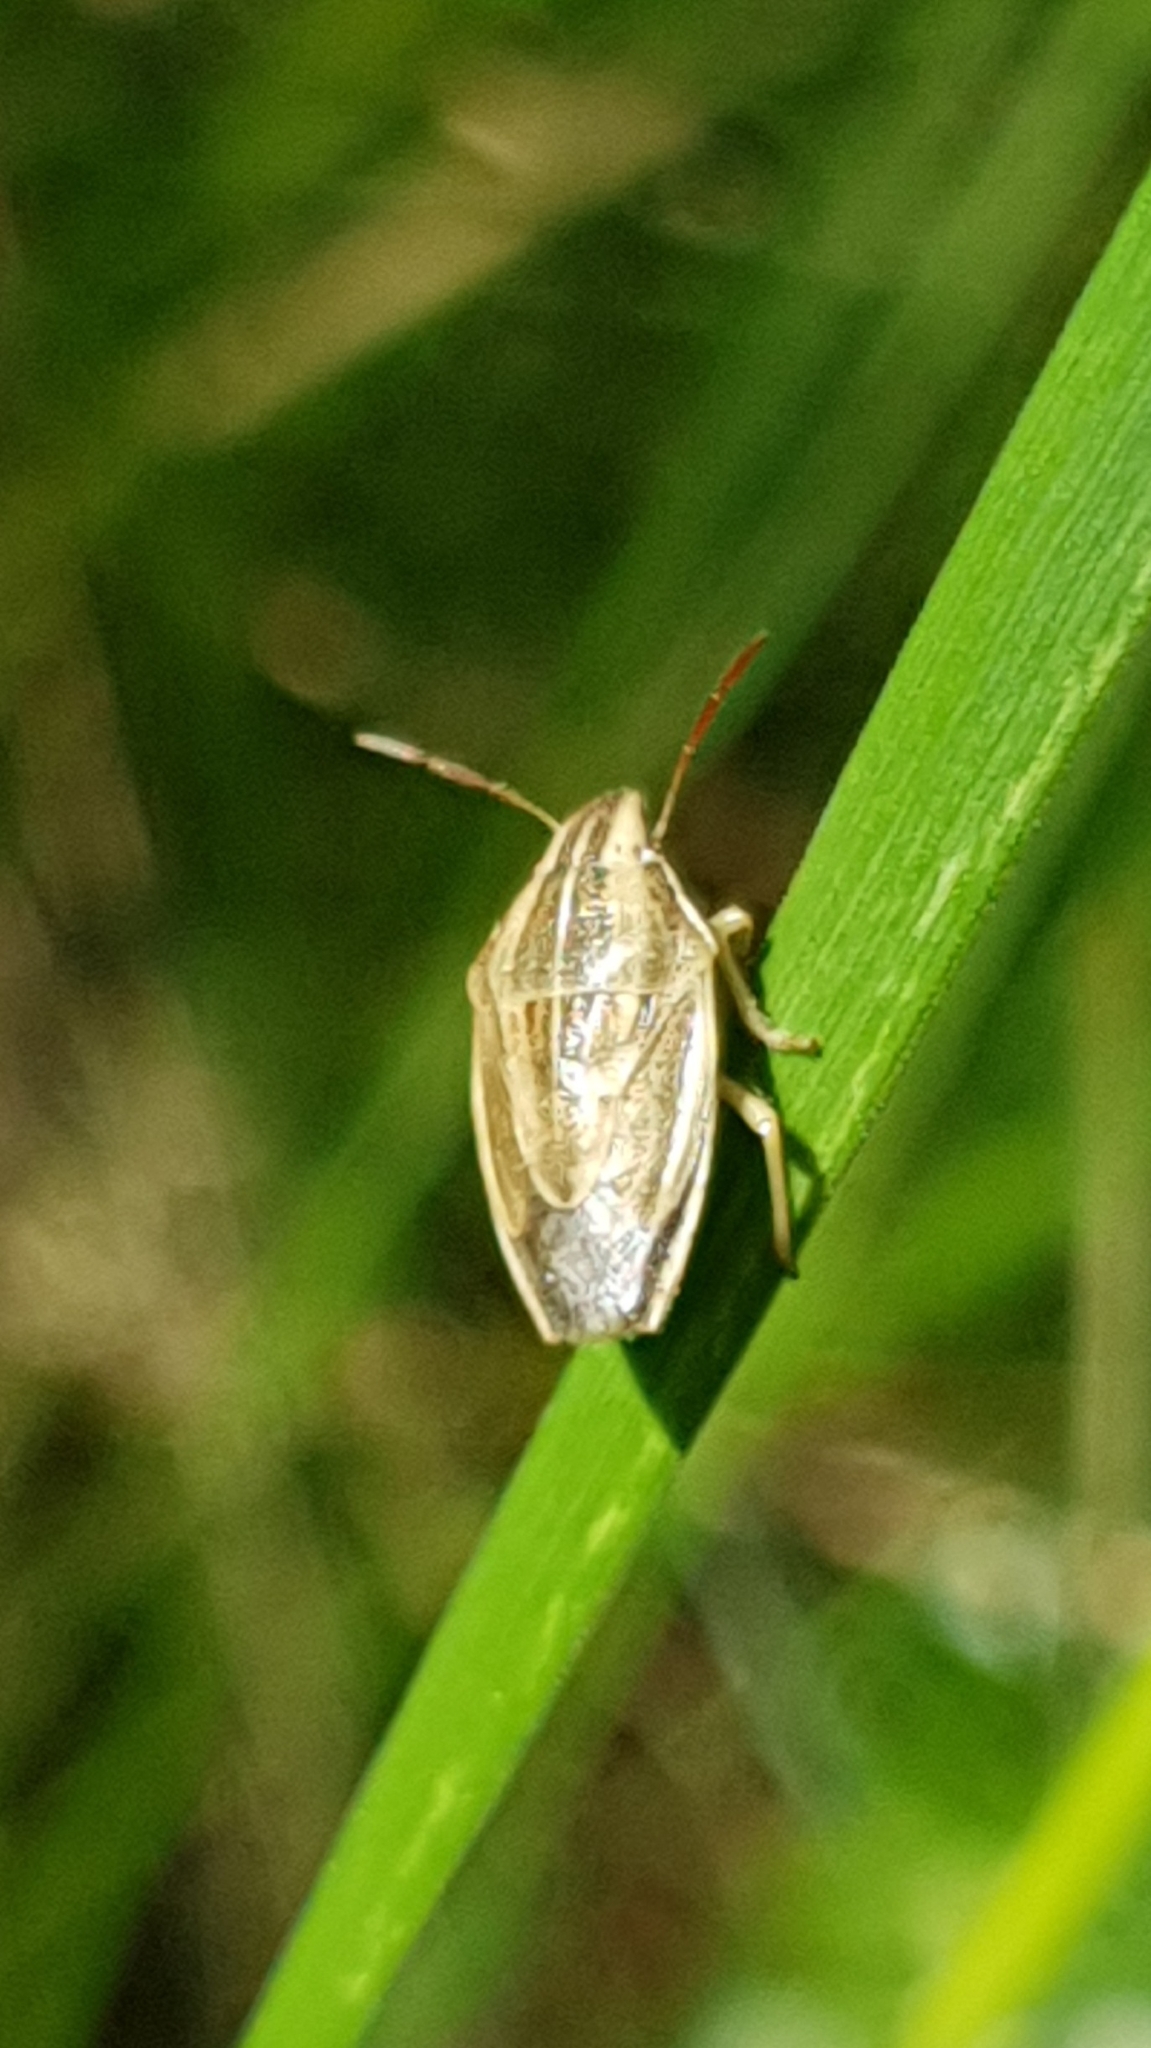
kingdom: Animalia
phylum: Arthropoda
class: Insecta
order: Hemiptera
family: Pentatomidae
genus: Aelia
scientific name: Aelia acuminata
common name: Bishop's mitre
